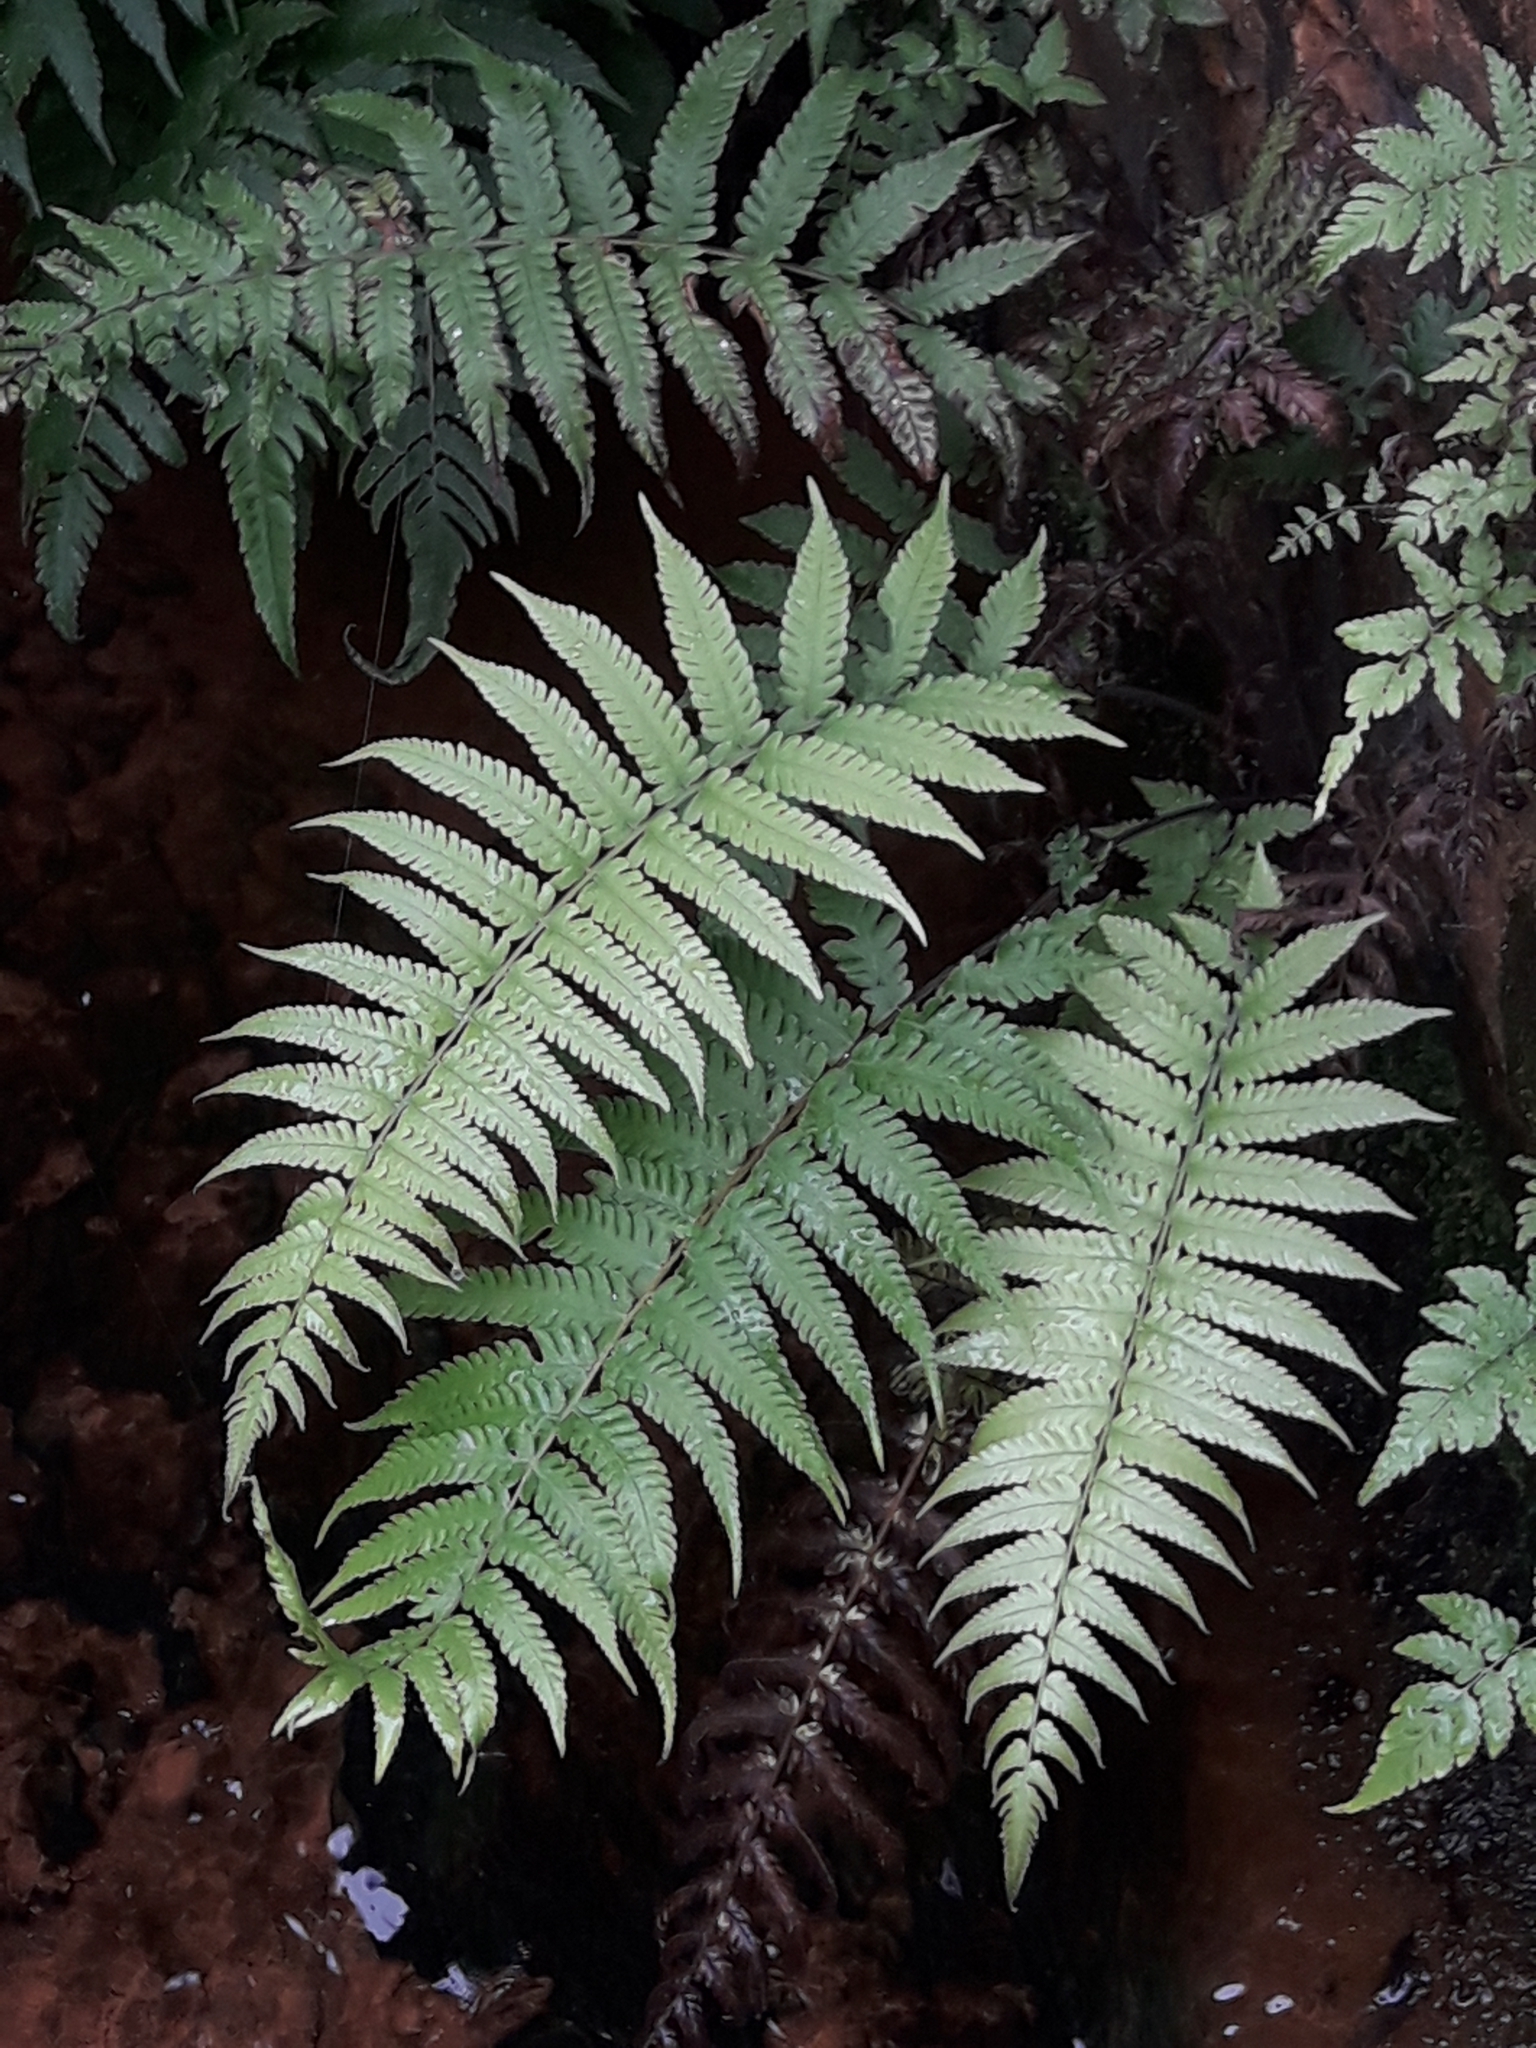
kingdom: Plantae
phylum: Tracheophyta
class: Polypodiopsida
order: Polypodiales
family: Thelypteridaceae
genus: Christella
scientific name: Christella dentata
